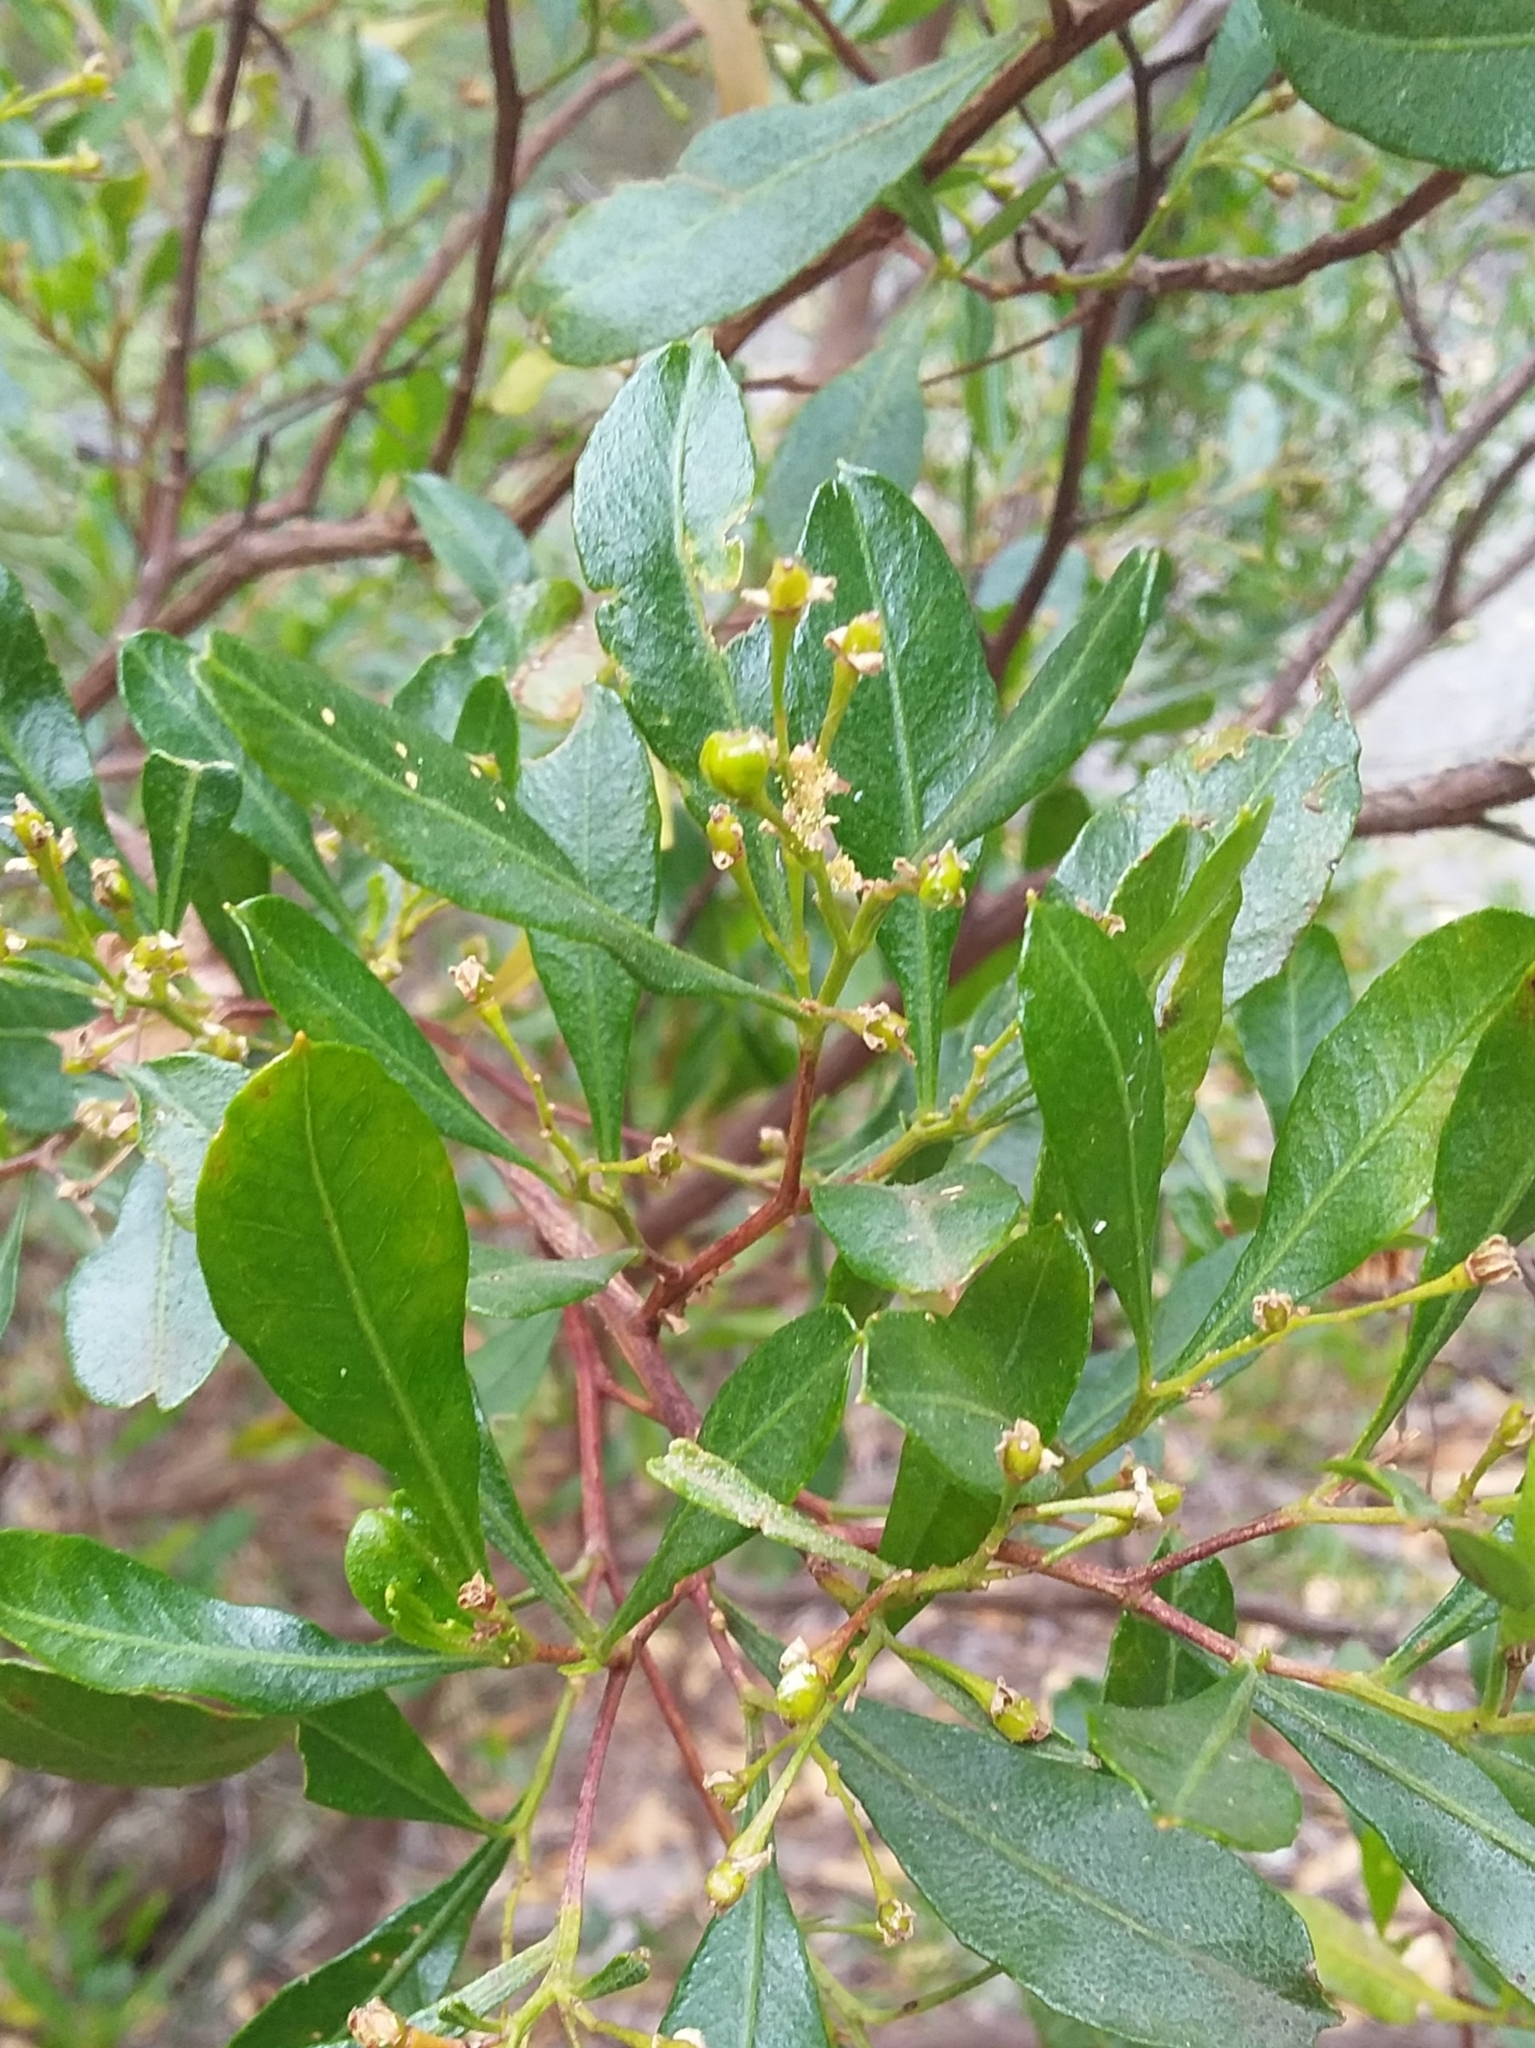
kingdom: Plantae
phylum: Tracheophyta
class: Magnoliopsida
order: Sapindales
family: Sapindaceae
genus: Dodonaea
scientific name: Dodonaea viscosa
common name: Hopbush
